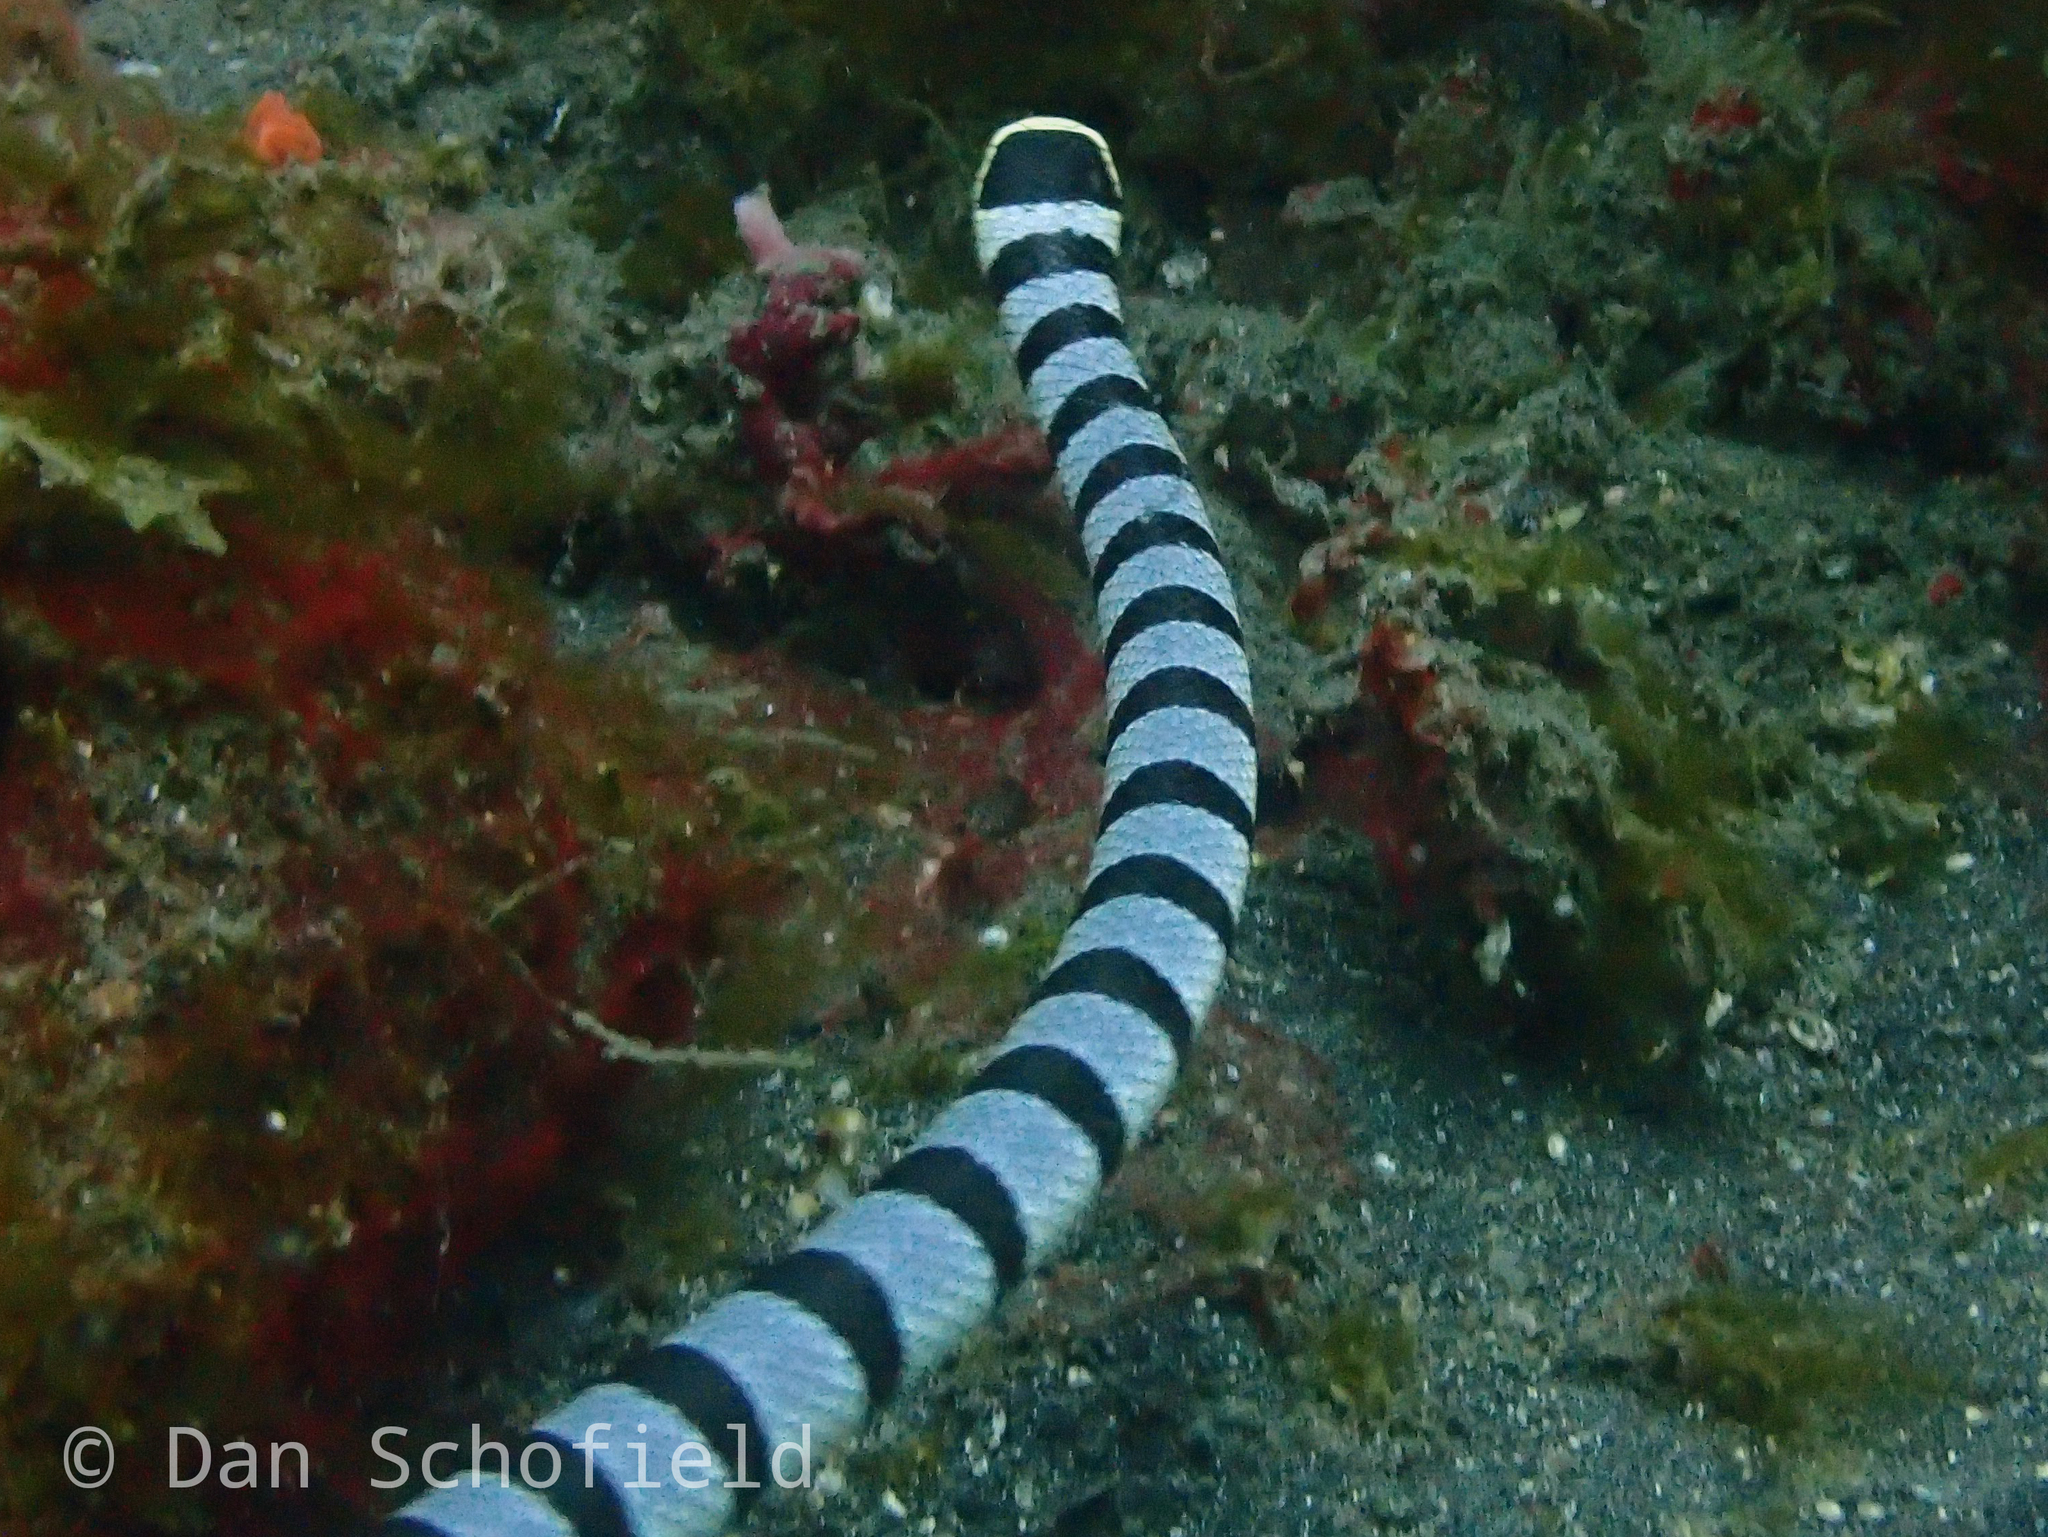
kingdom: Animalia
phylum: Chordata
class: Squamata
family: Elapidae
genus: Laticauda
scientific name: Laticauda colubrina
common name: Yellow-lipped sea krait
